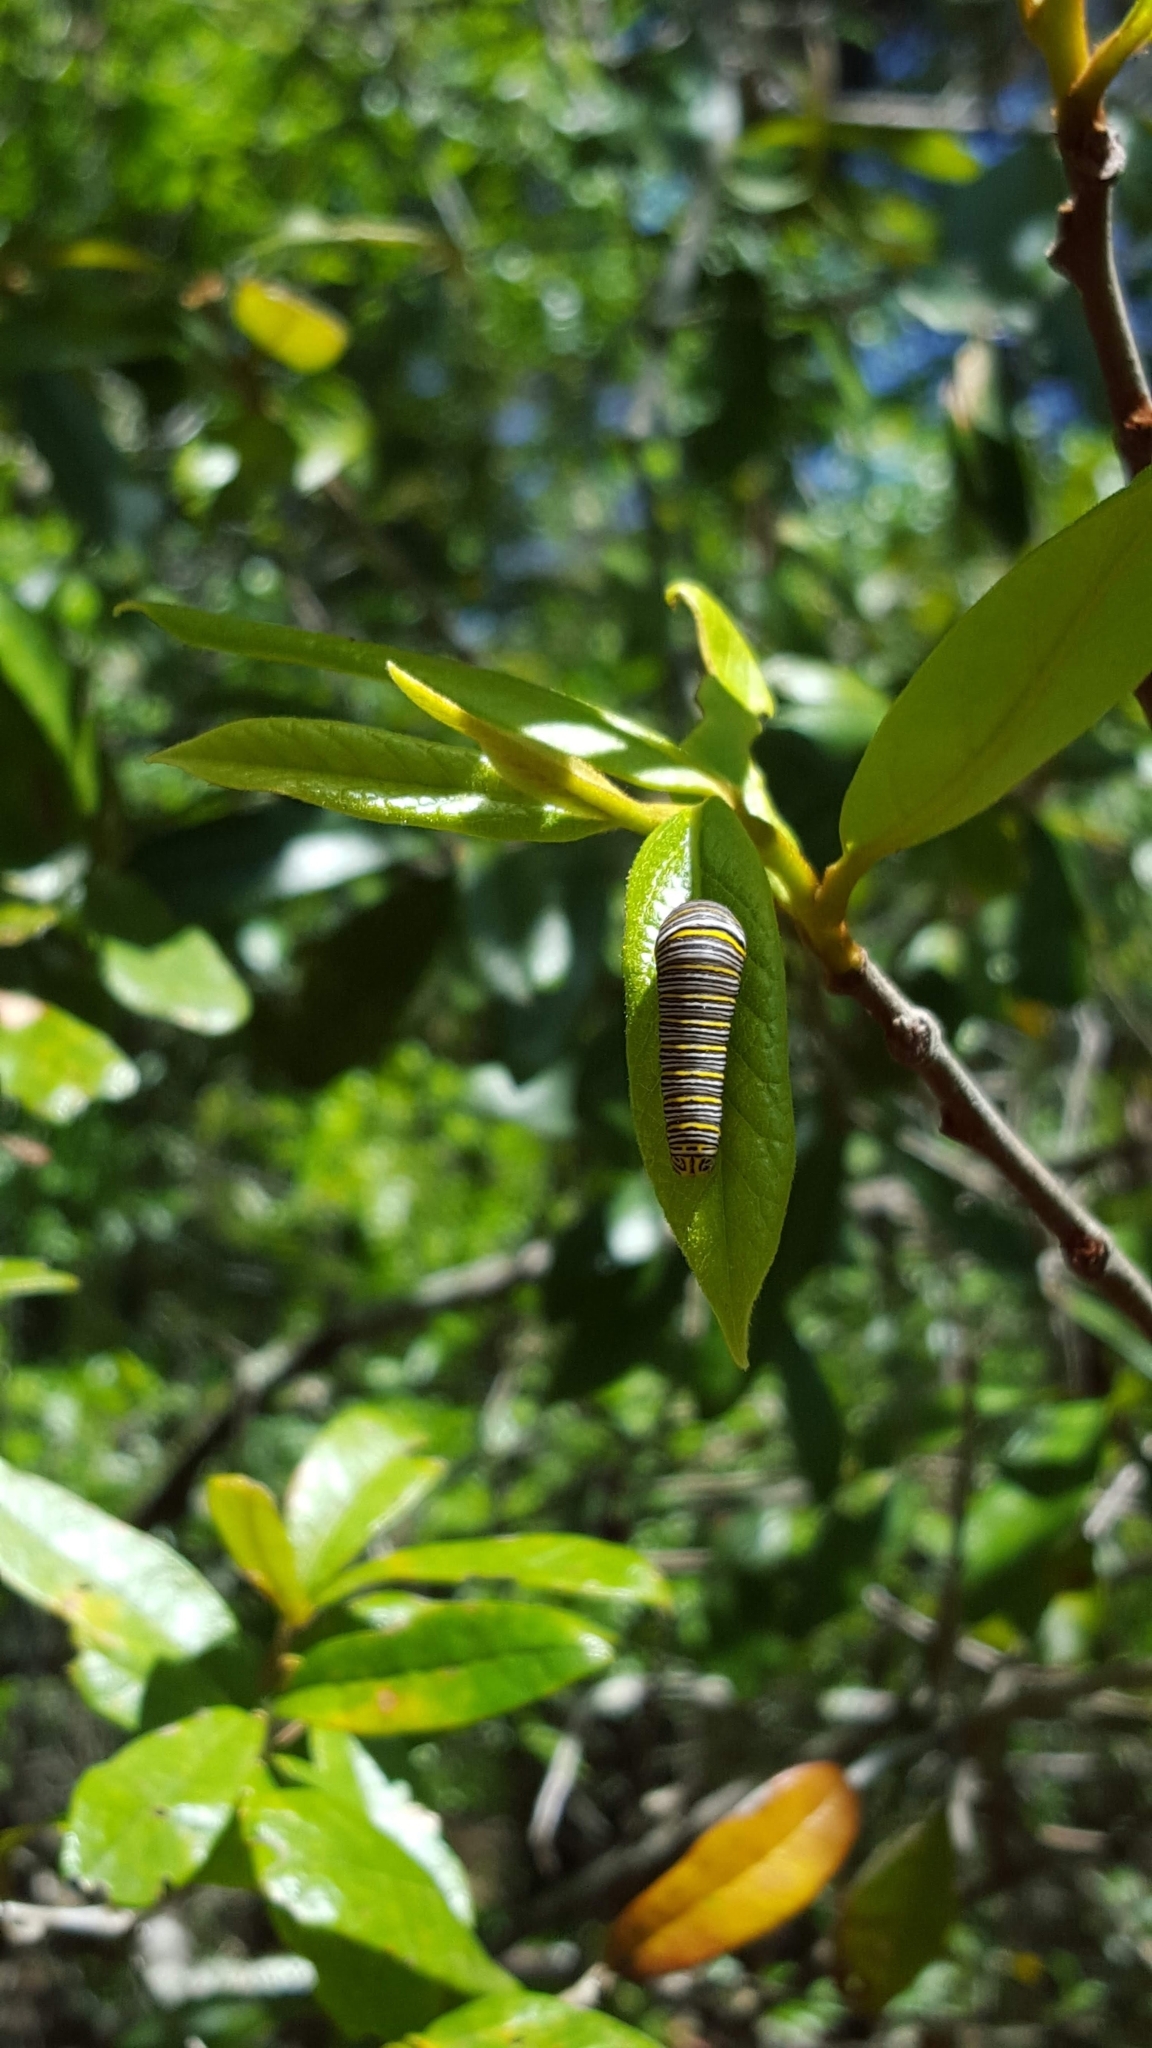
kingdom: Animalia
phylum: Arthropoda
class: Insecta
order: Lepidoptera
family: Papilionidae
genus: Protographium
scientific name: Protographium marcellus
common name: Zebra swallowtail
